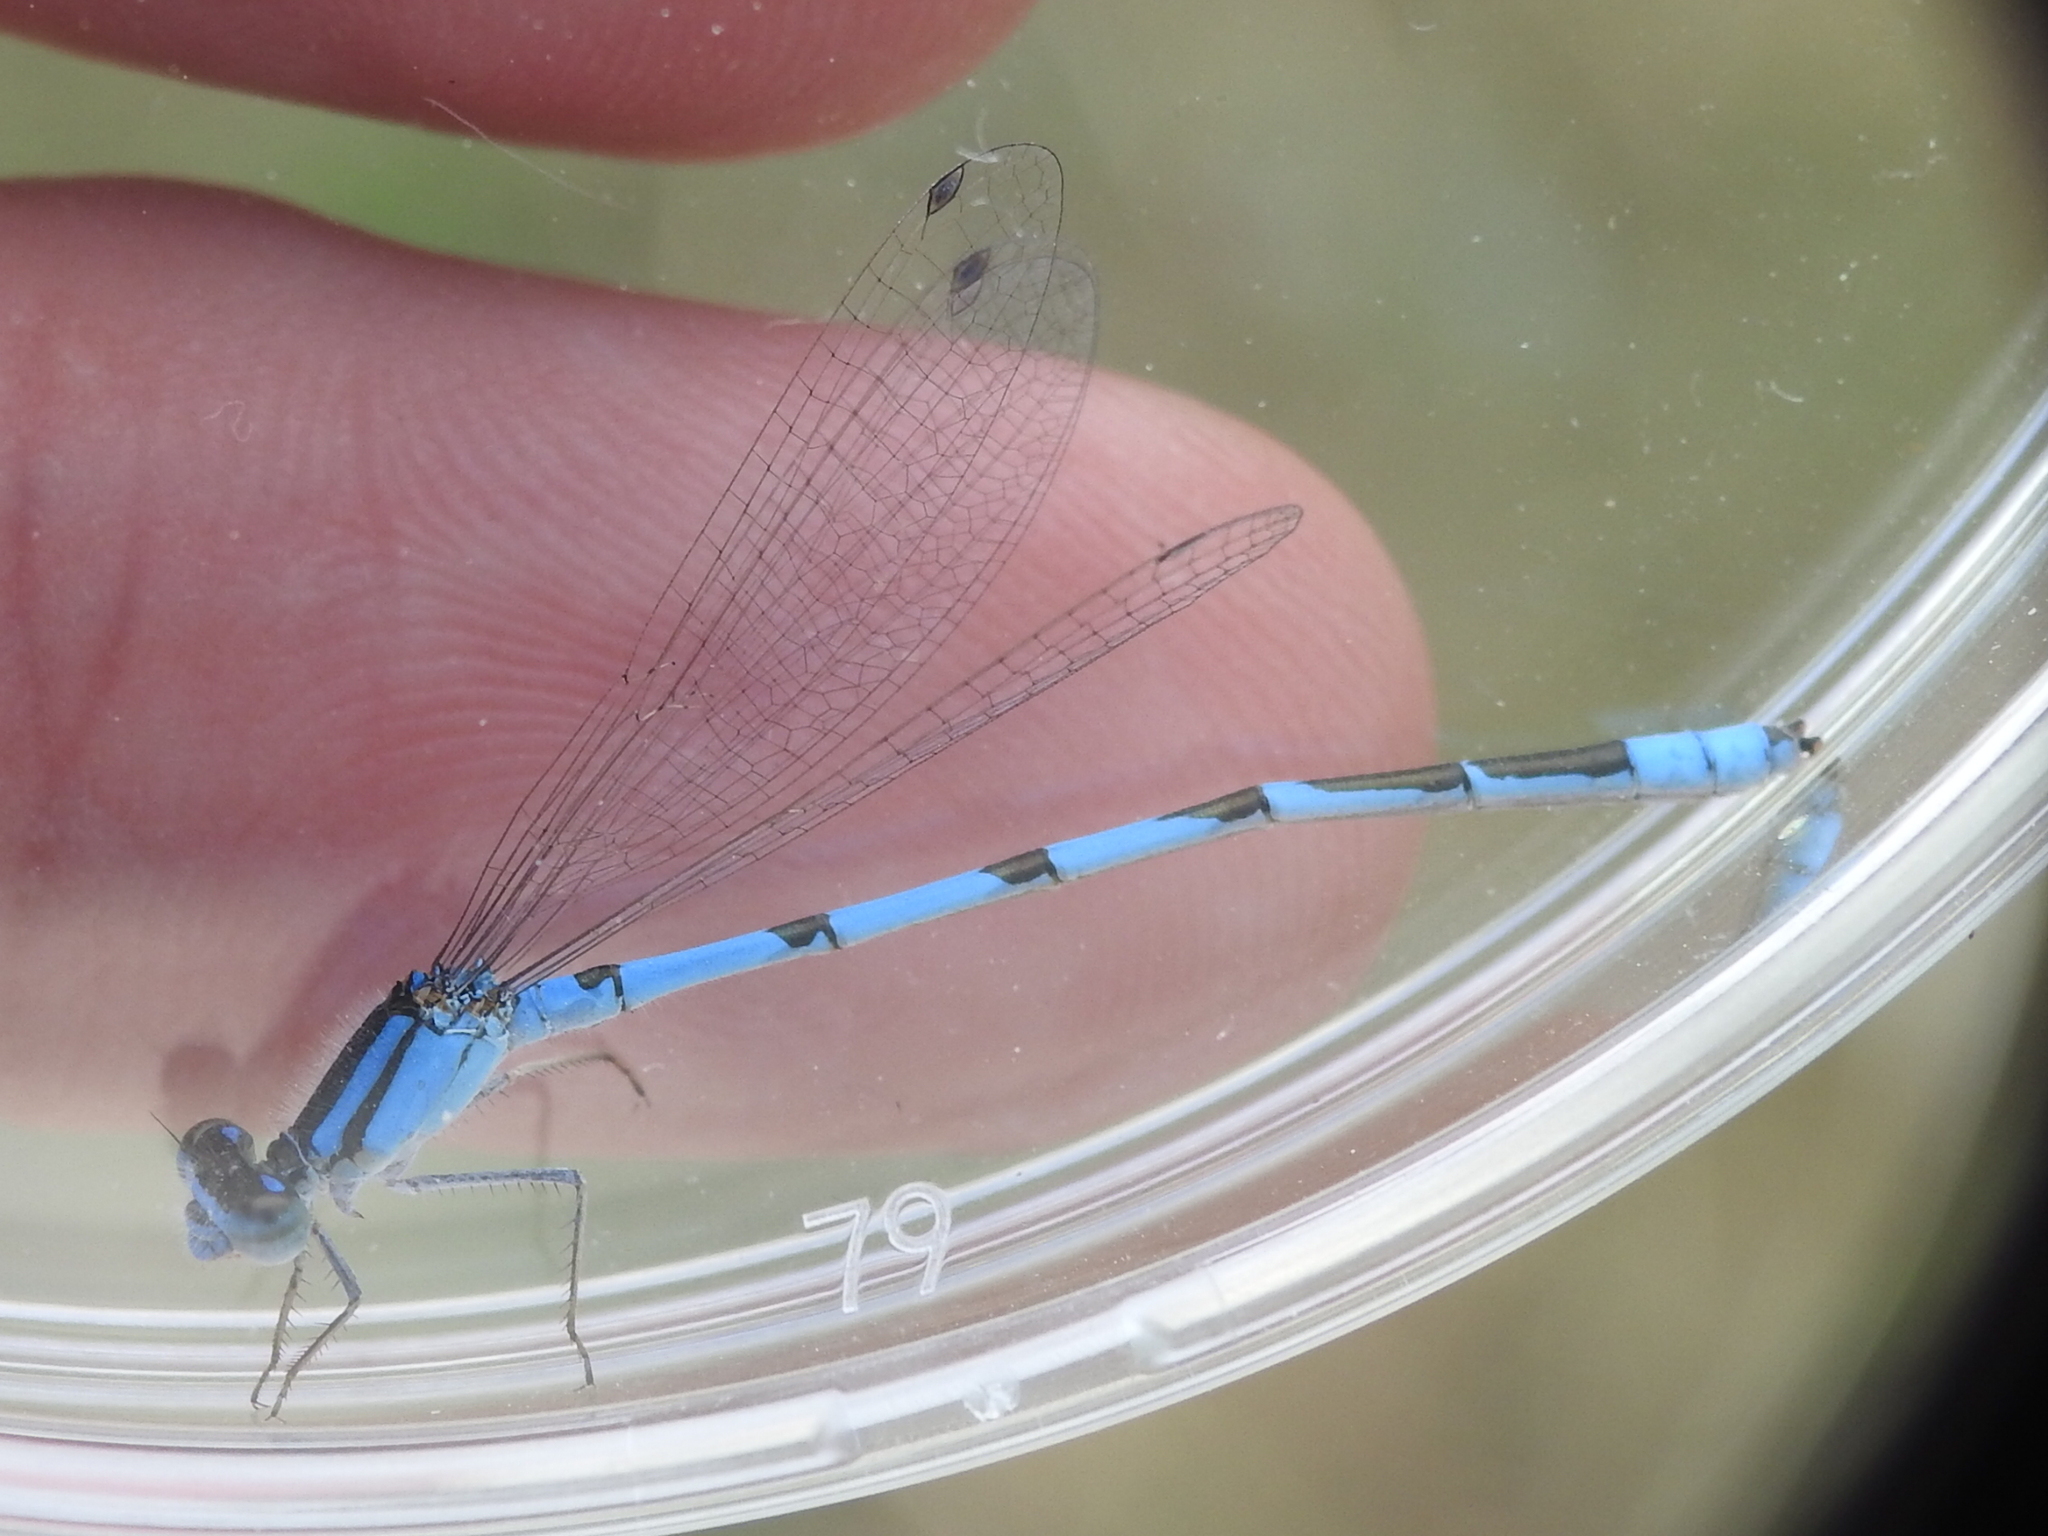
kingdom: Animalia
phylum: Arthropoda
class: Insecta
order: Odonata
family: Coenagrionidae
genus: Enallagma
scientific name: Enallagma civile
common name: Damselfly
